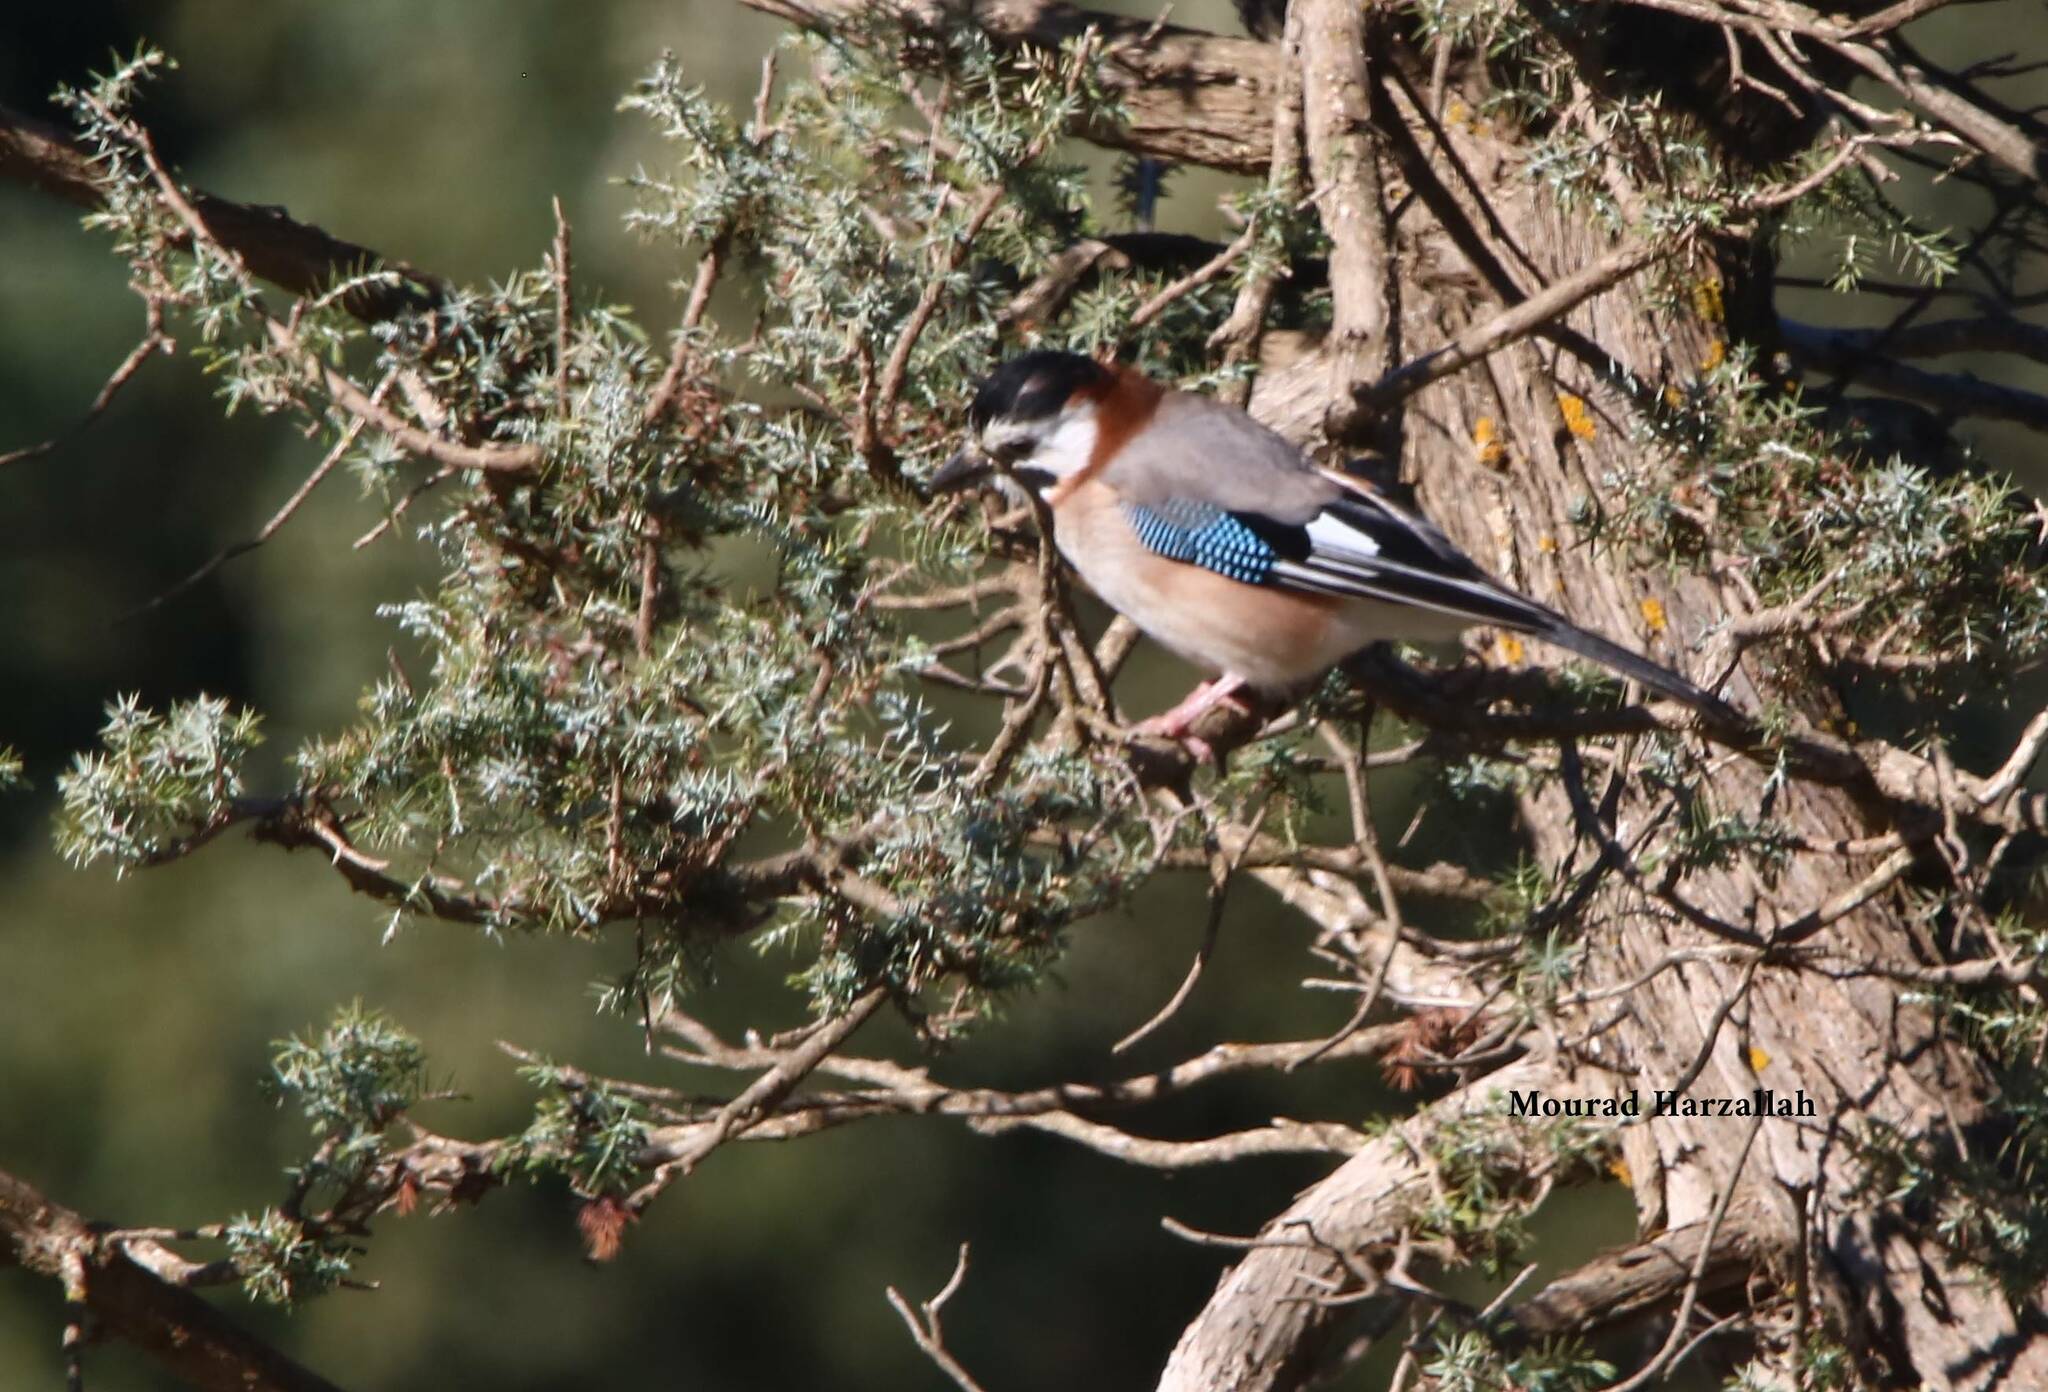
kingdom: Animalia
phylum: Chordata
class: Aves
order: Passeriformes
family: Corvidae
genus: Garrulus
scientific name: Garrulus glandarius
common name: Eurasian jay
